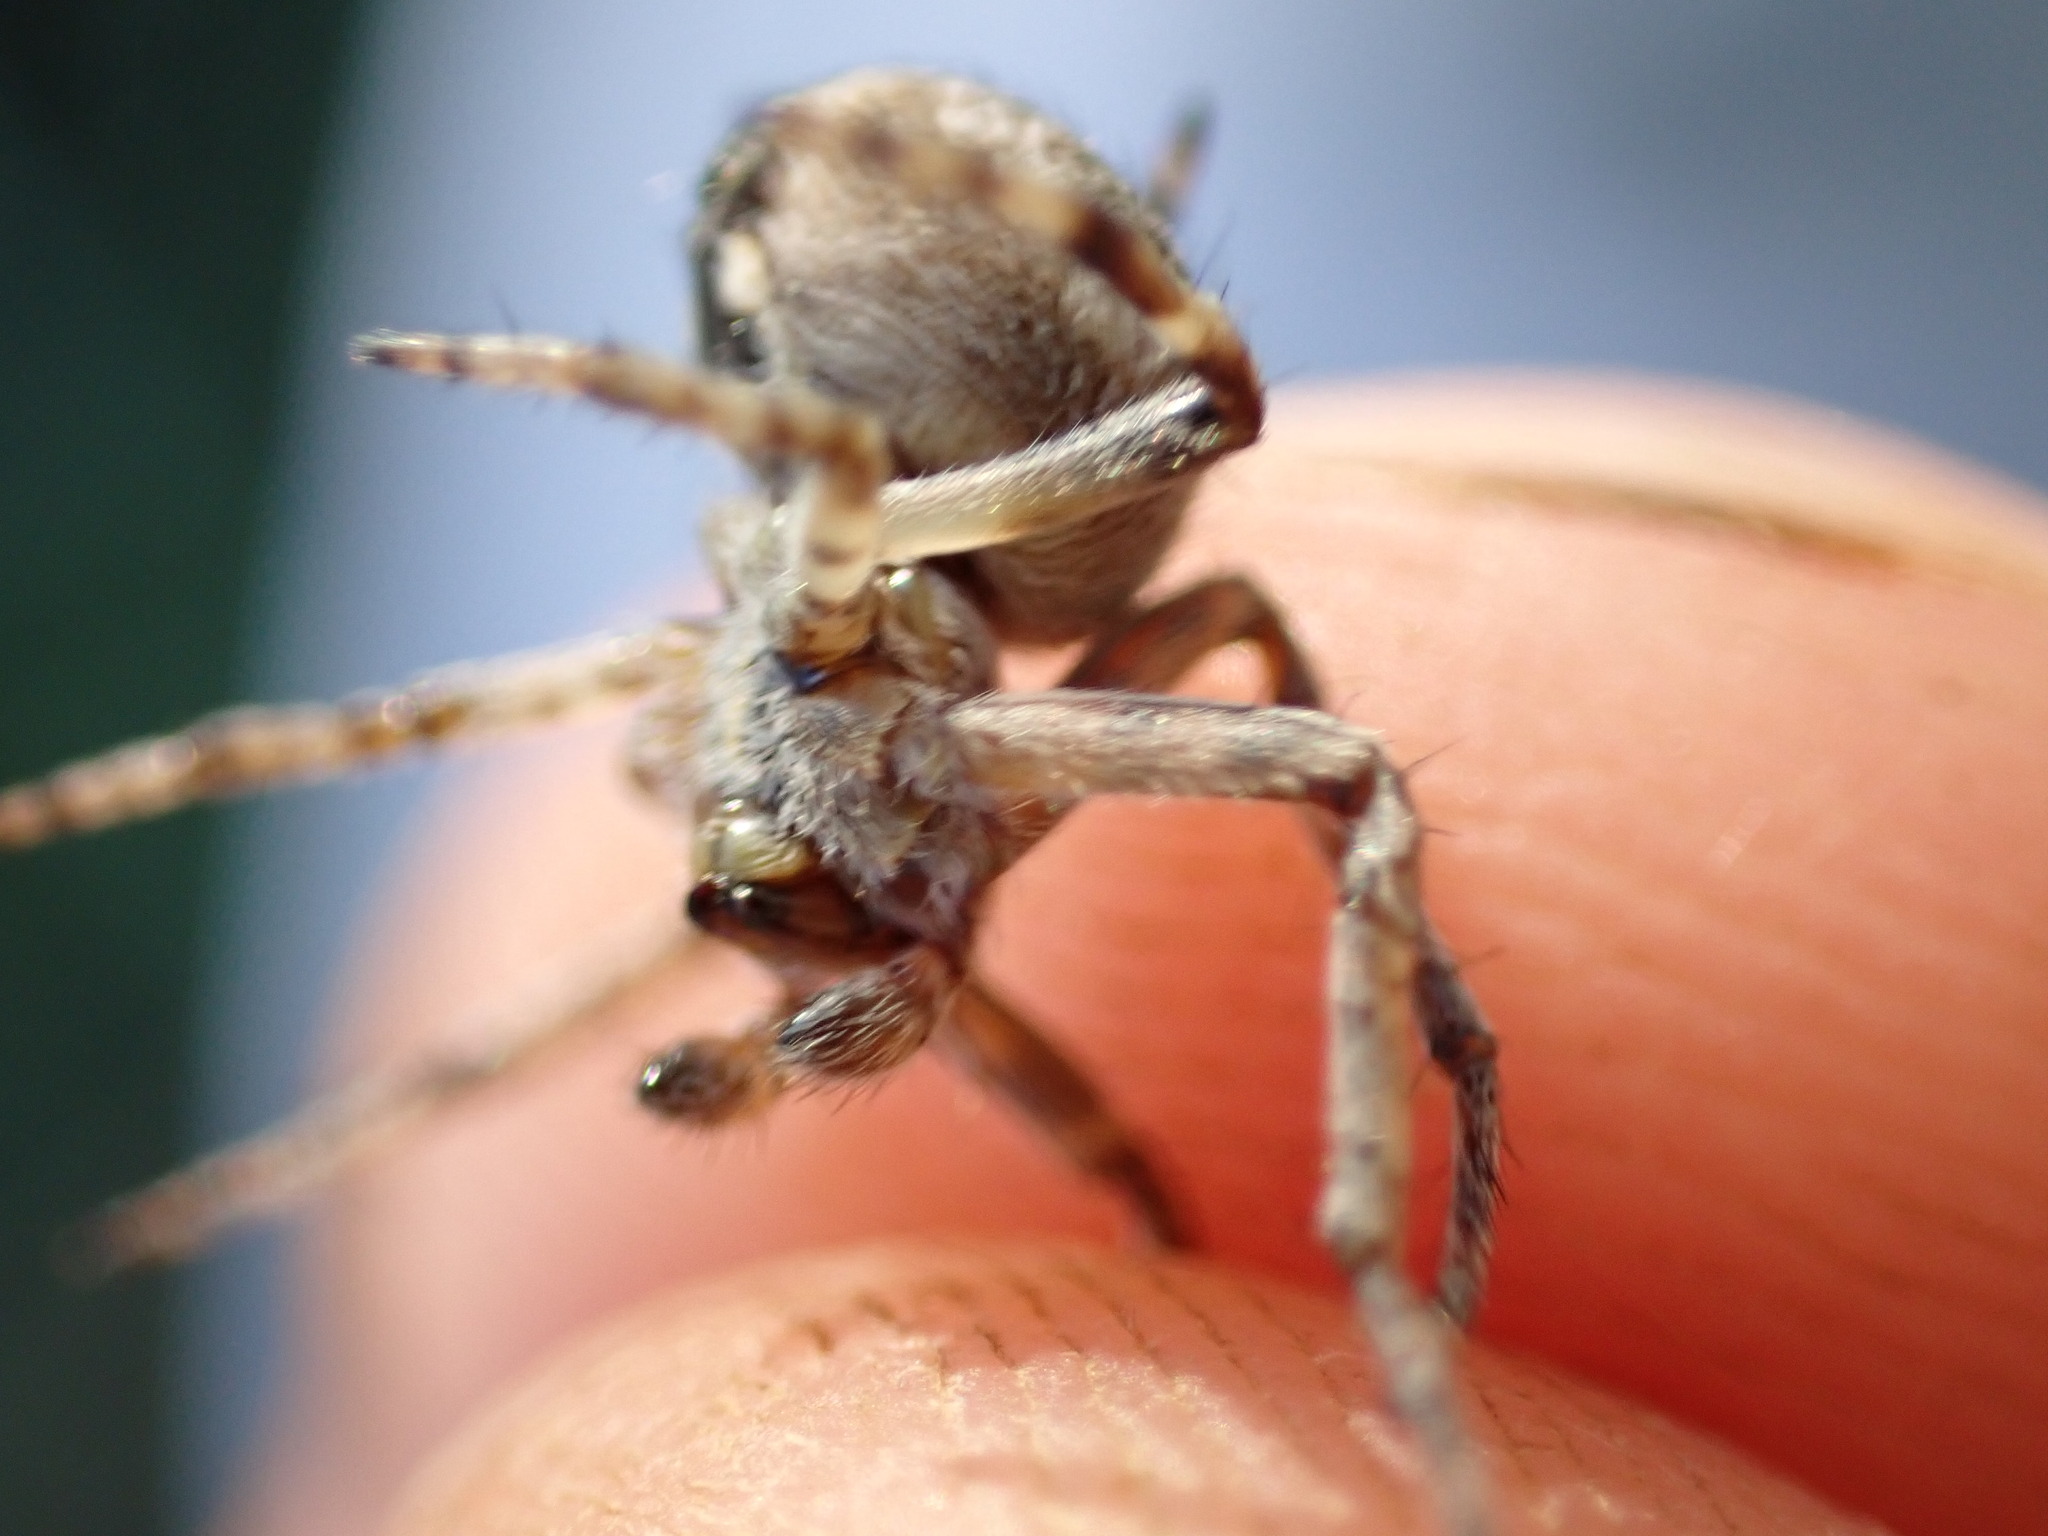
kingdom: Animalia
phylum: Arthropoda
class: Arachnida
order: Araneae
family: Araneidae
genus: Agalenatea
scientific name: Agalenatea redii
